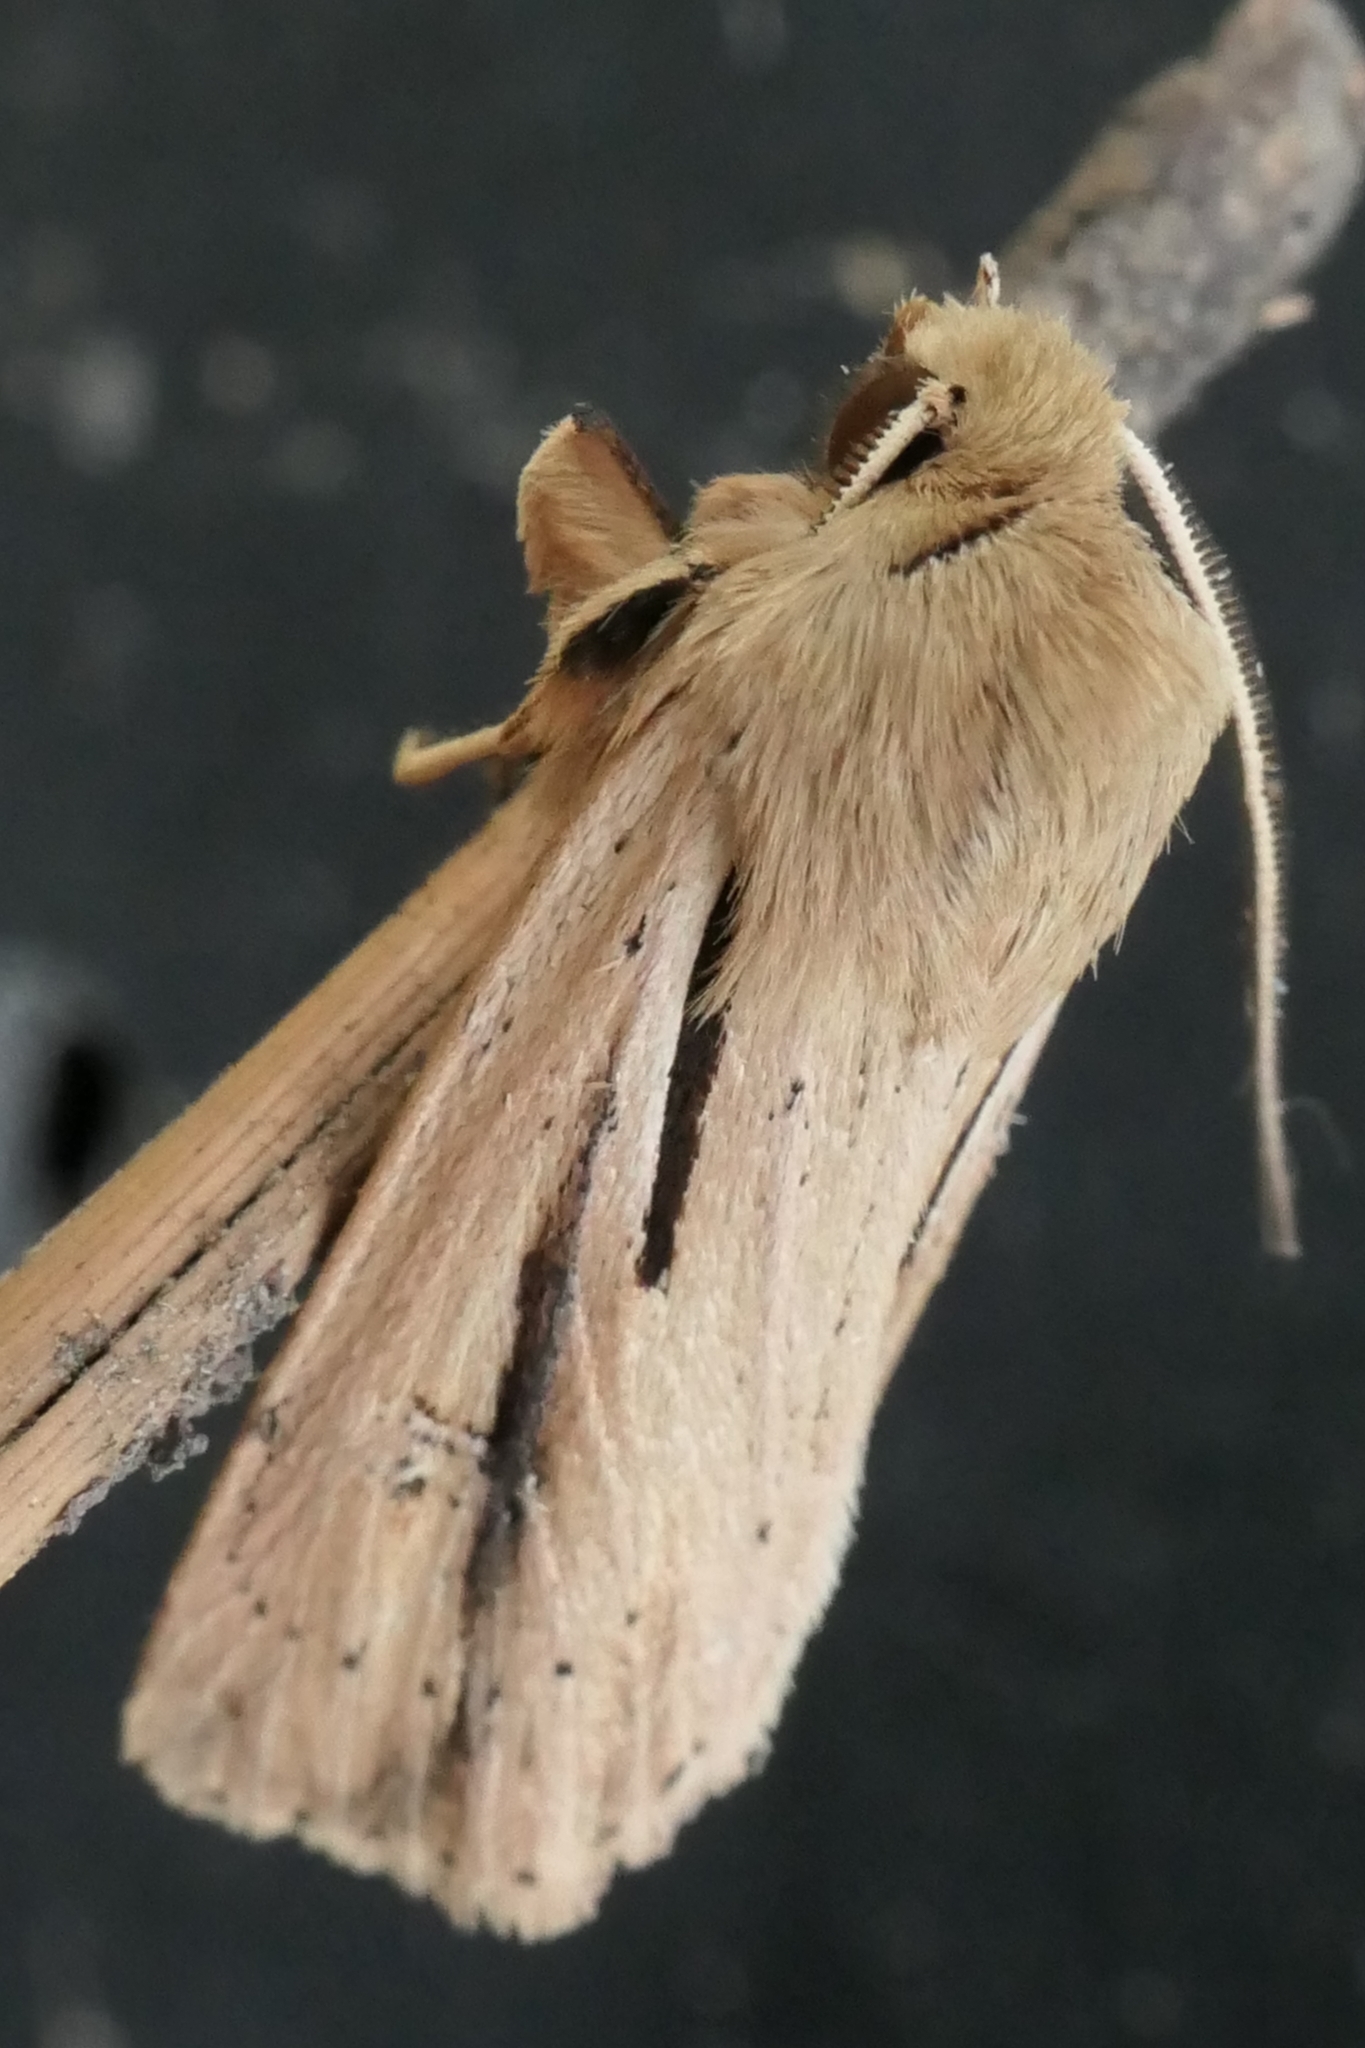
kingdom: Animalia
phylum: Arthropoda
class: Insecta
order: Lepidoptera
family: Noctuidae
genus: Ichneutica
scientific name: Ichneutica propria
